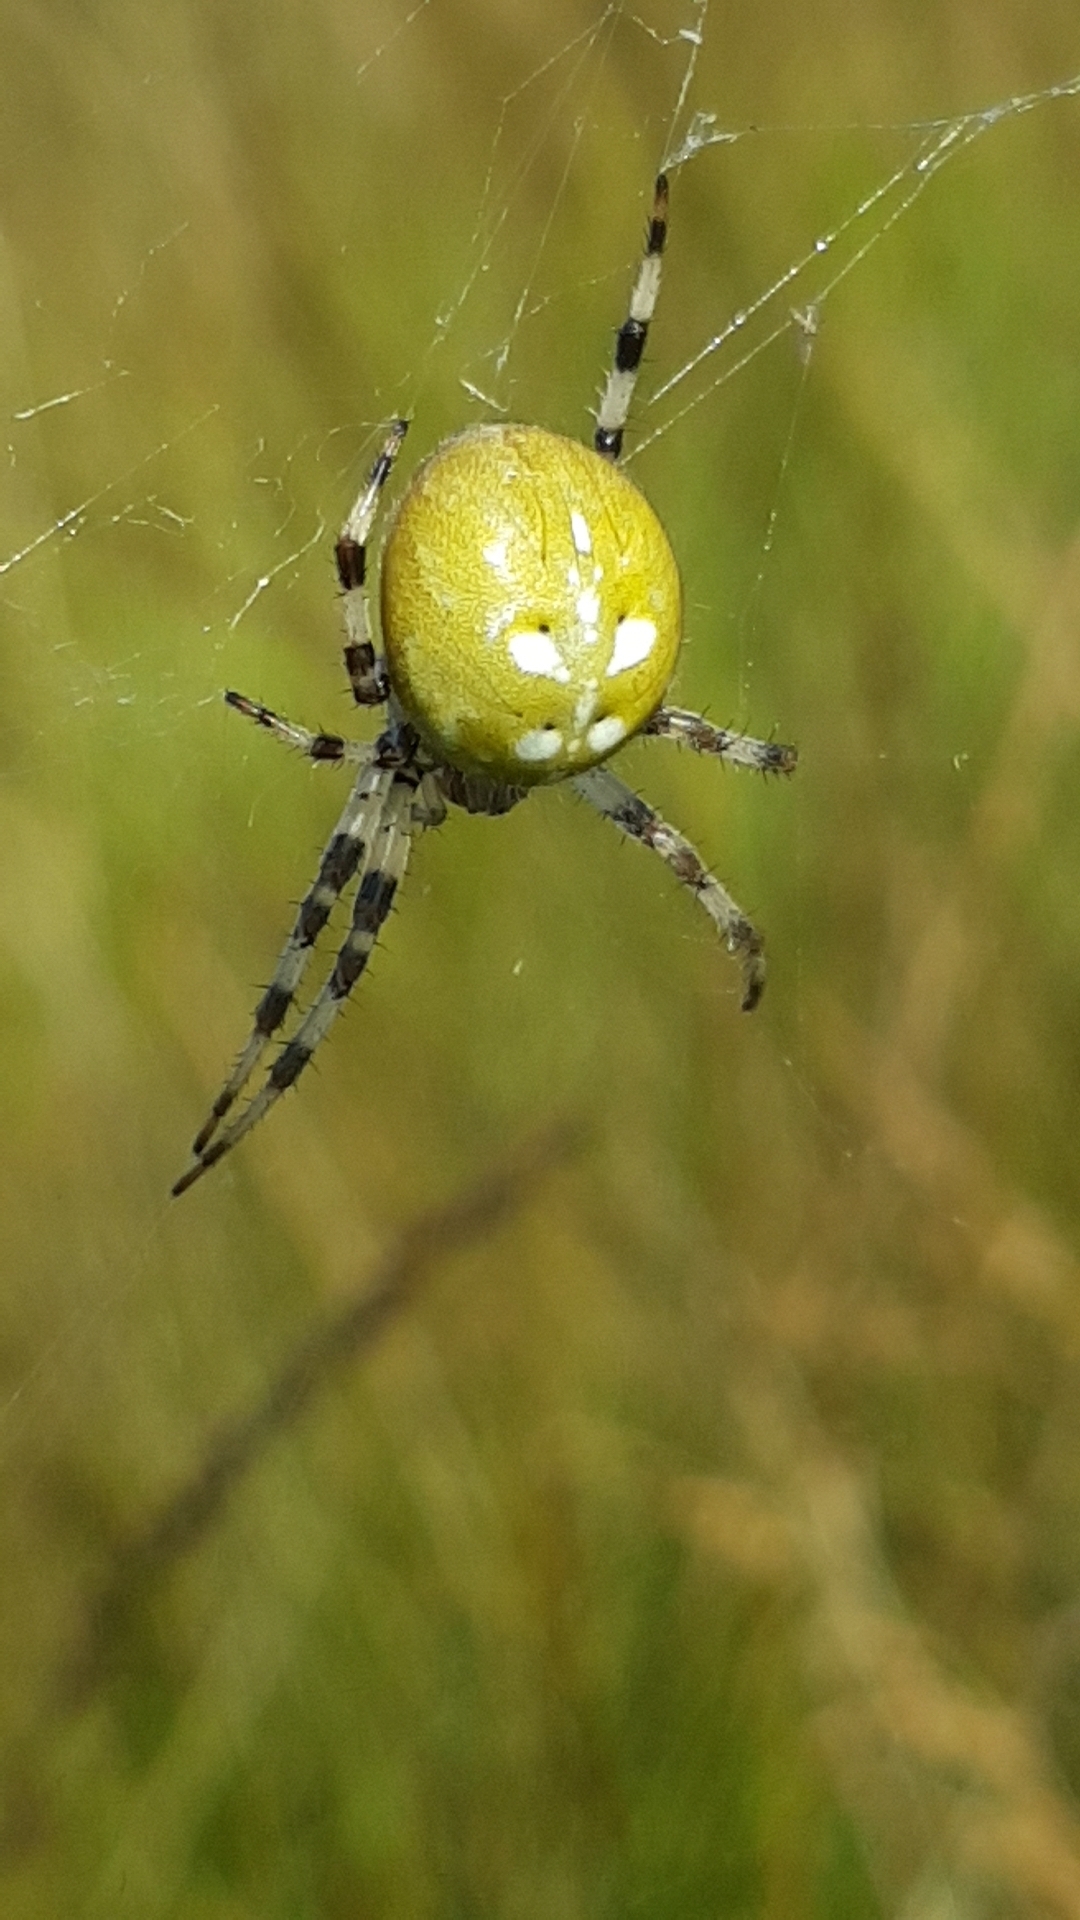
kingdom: Animalia
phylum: Arthropoda
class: Arachnida
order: Araneae
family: Araneidae
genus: Araneus
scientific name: Araneus quadratus
